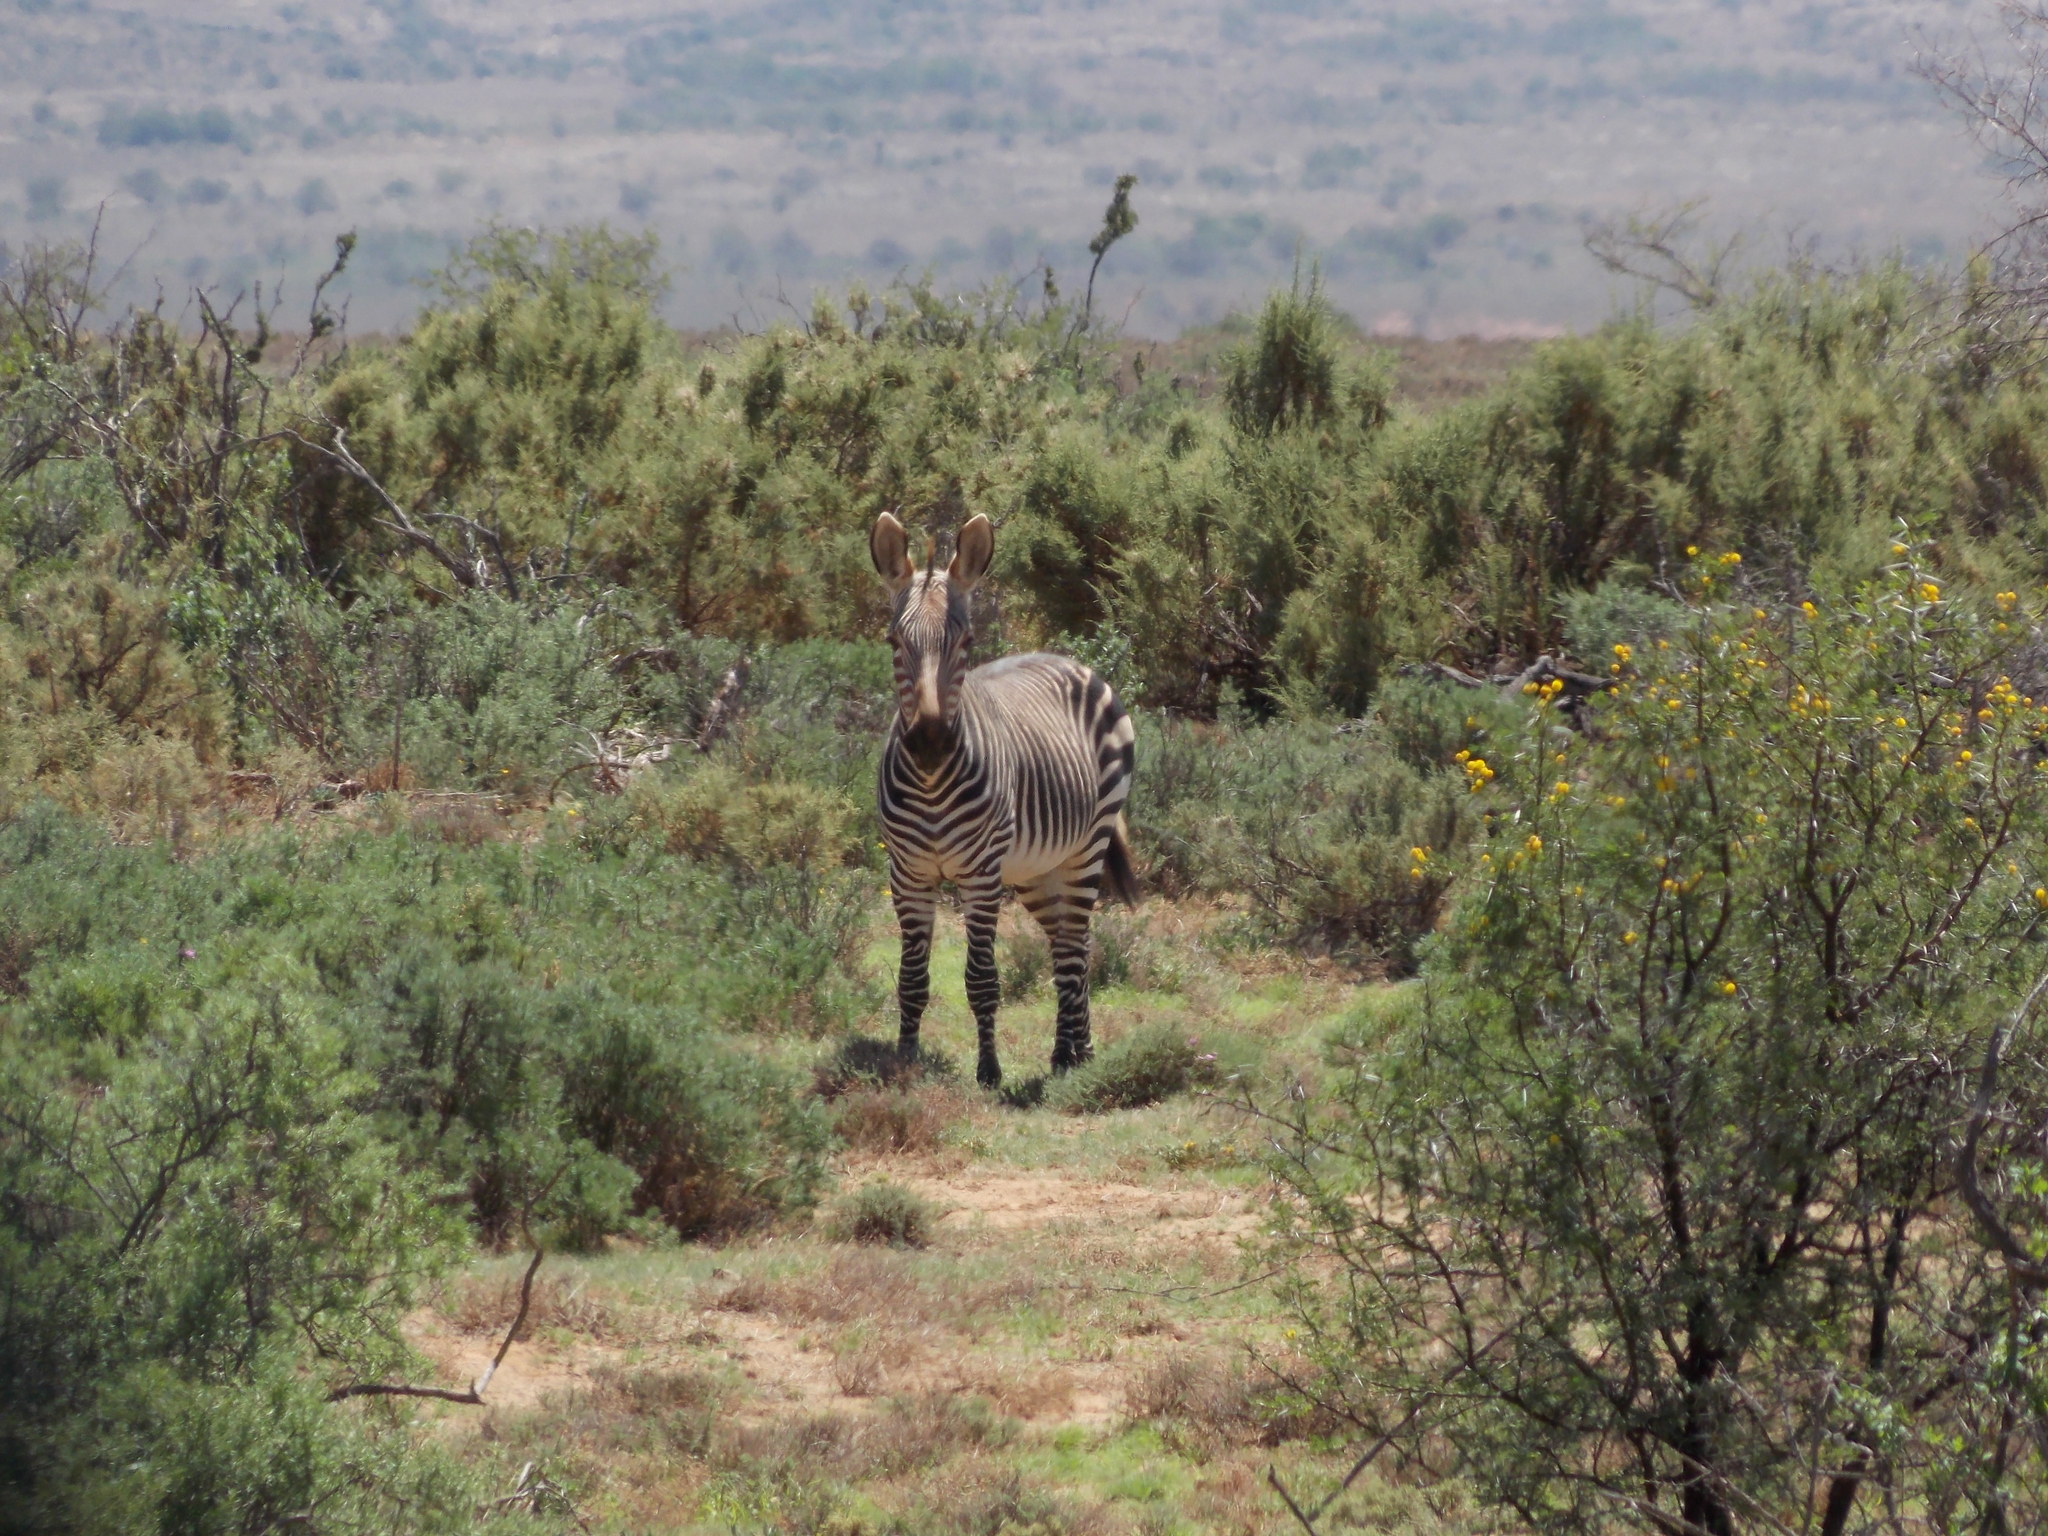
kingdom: Animalia
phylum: Chordata
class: Mammalia
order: Perissodactyla
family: Equidae
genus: Equus
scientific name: Equus zebra
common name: Mountain zebra
